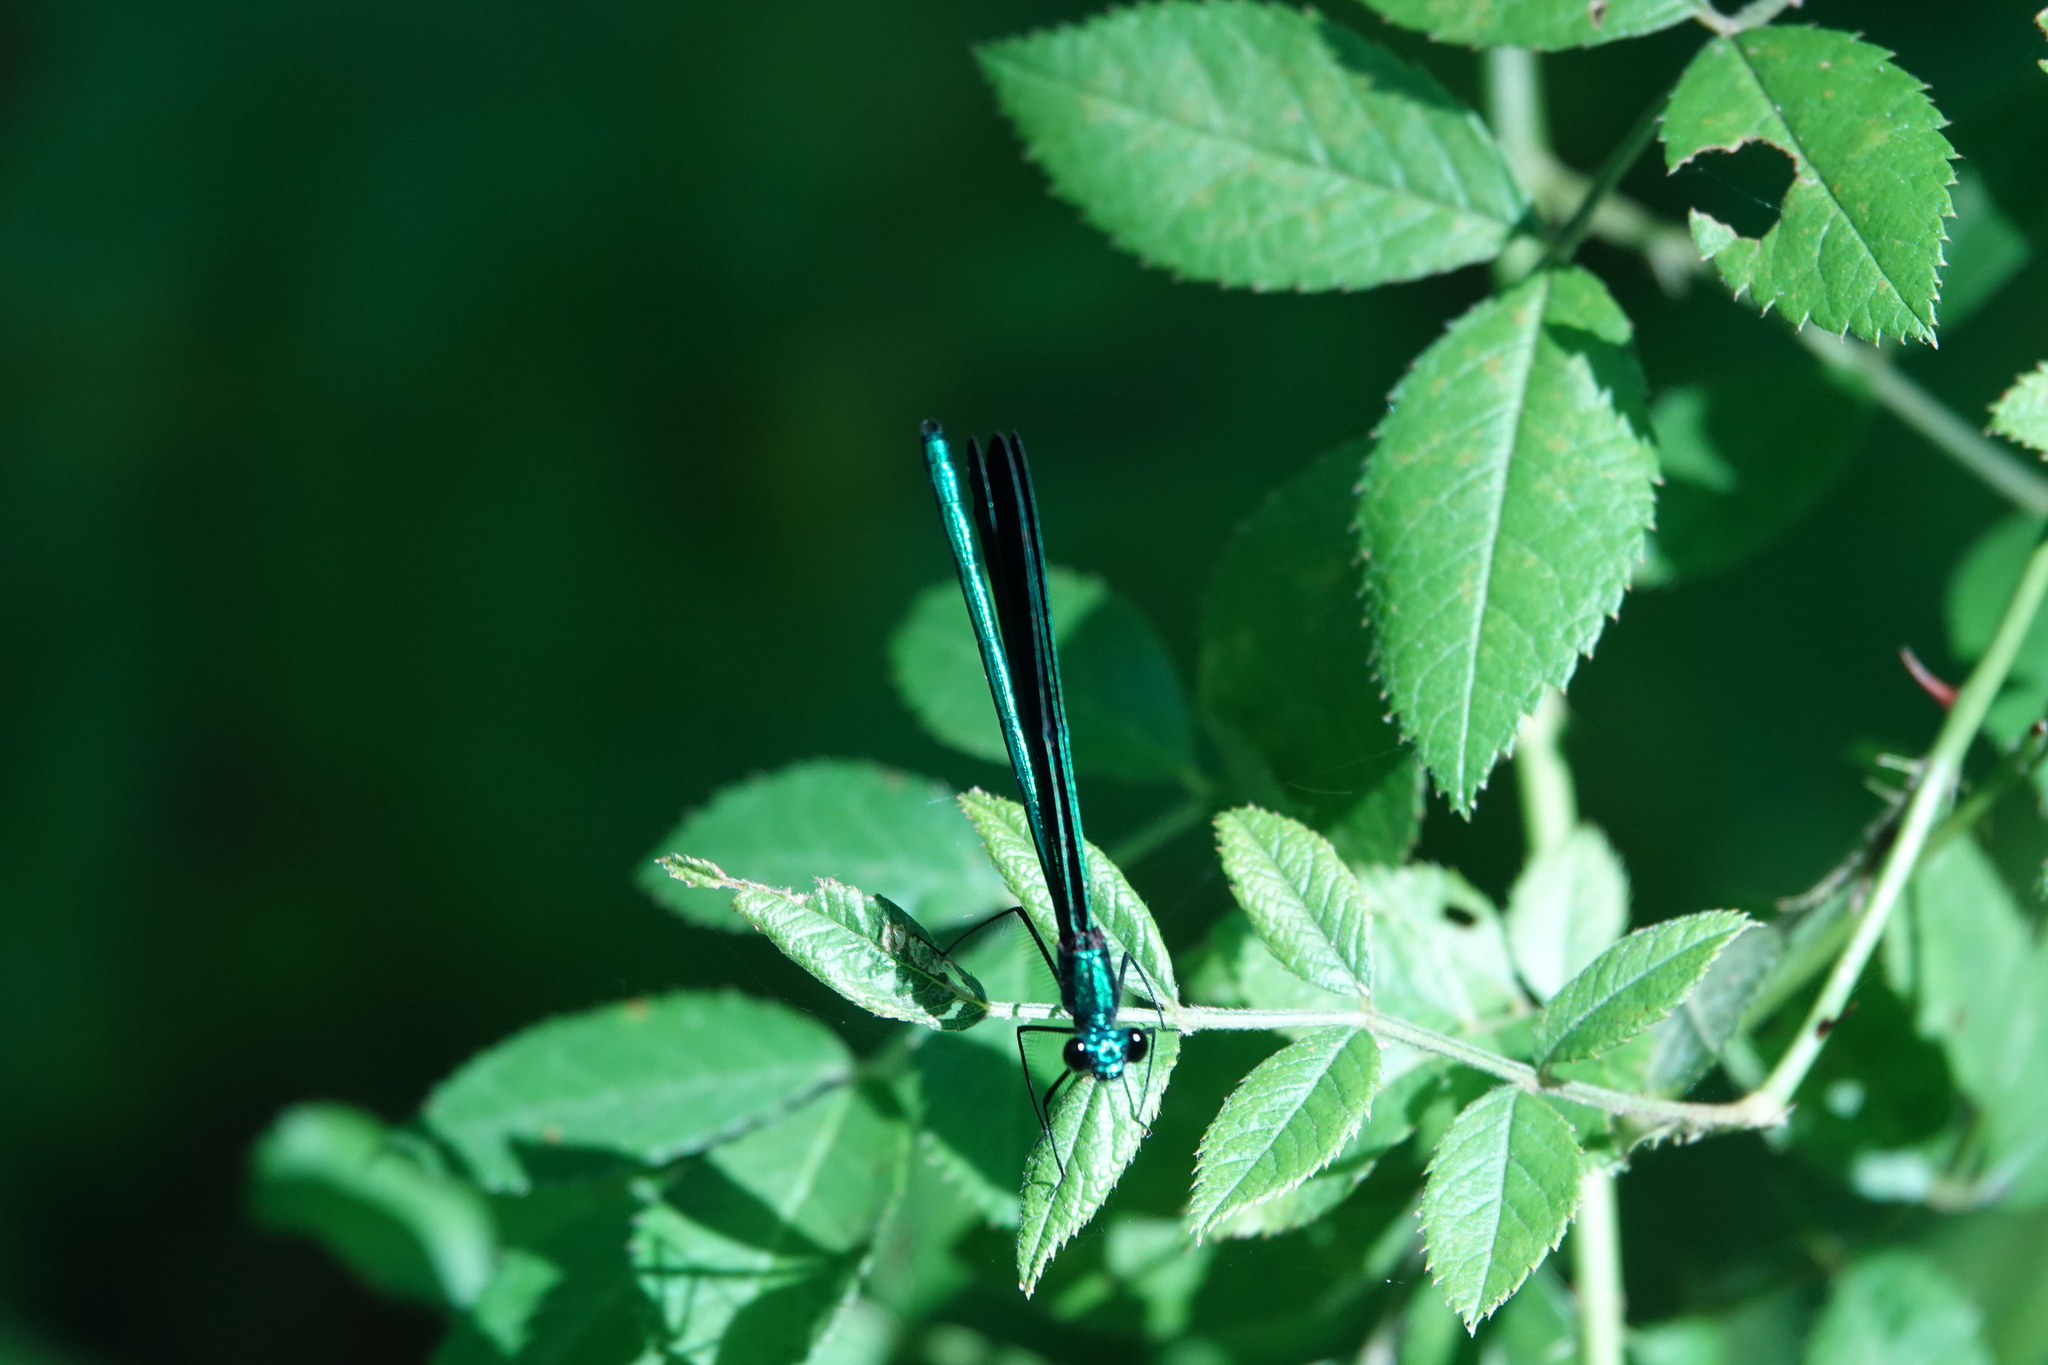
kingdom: Animalia
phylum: Arthropoda
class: Insecta
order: Odonata
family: Calopterygidae
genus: Calopteryx
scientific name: Calopteryx maculata
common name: Ebony jewelwing
